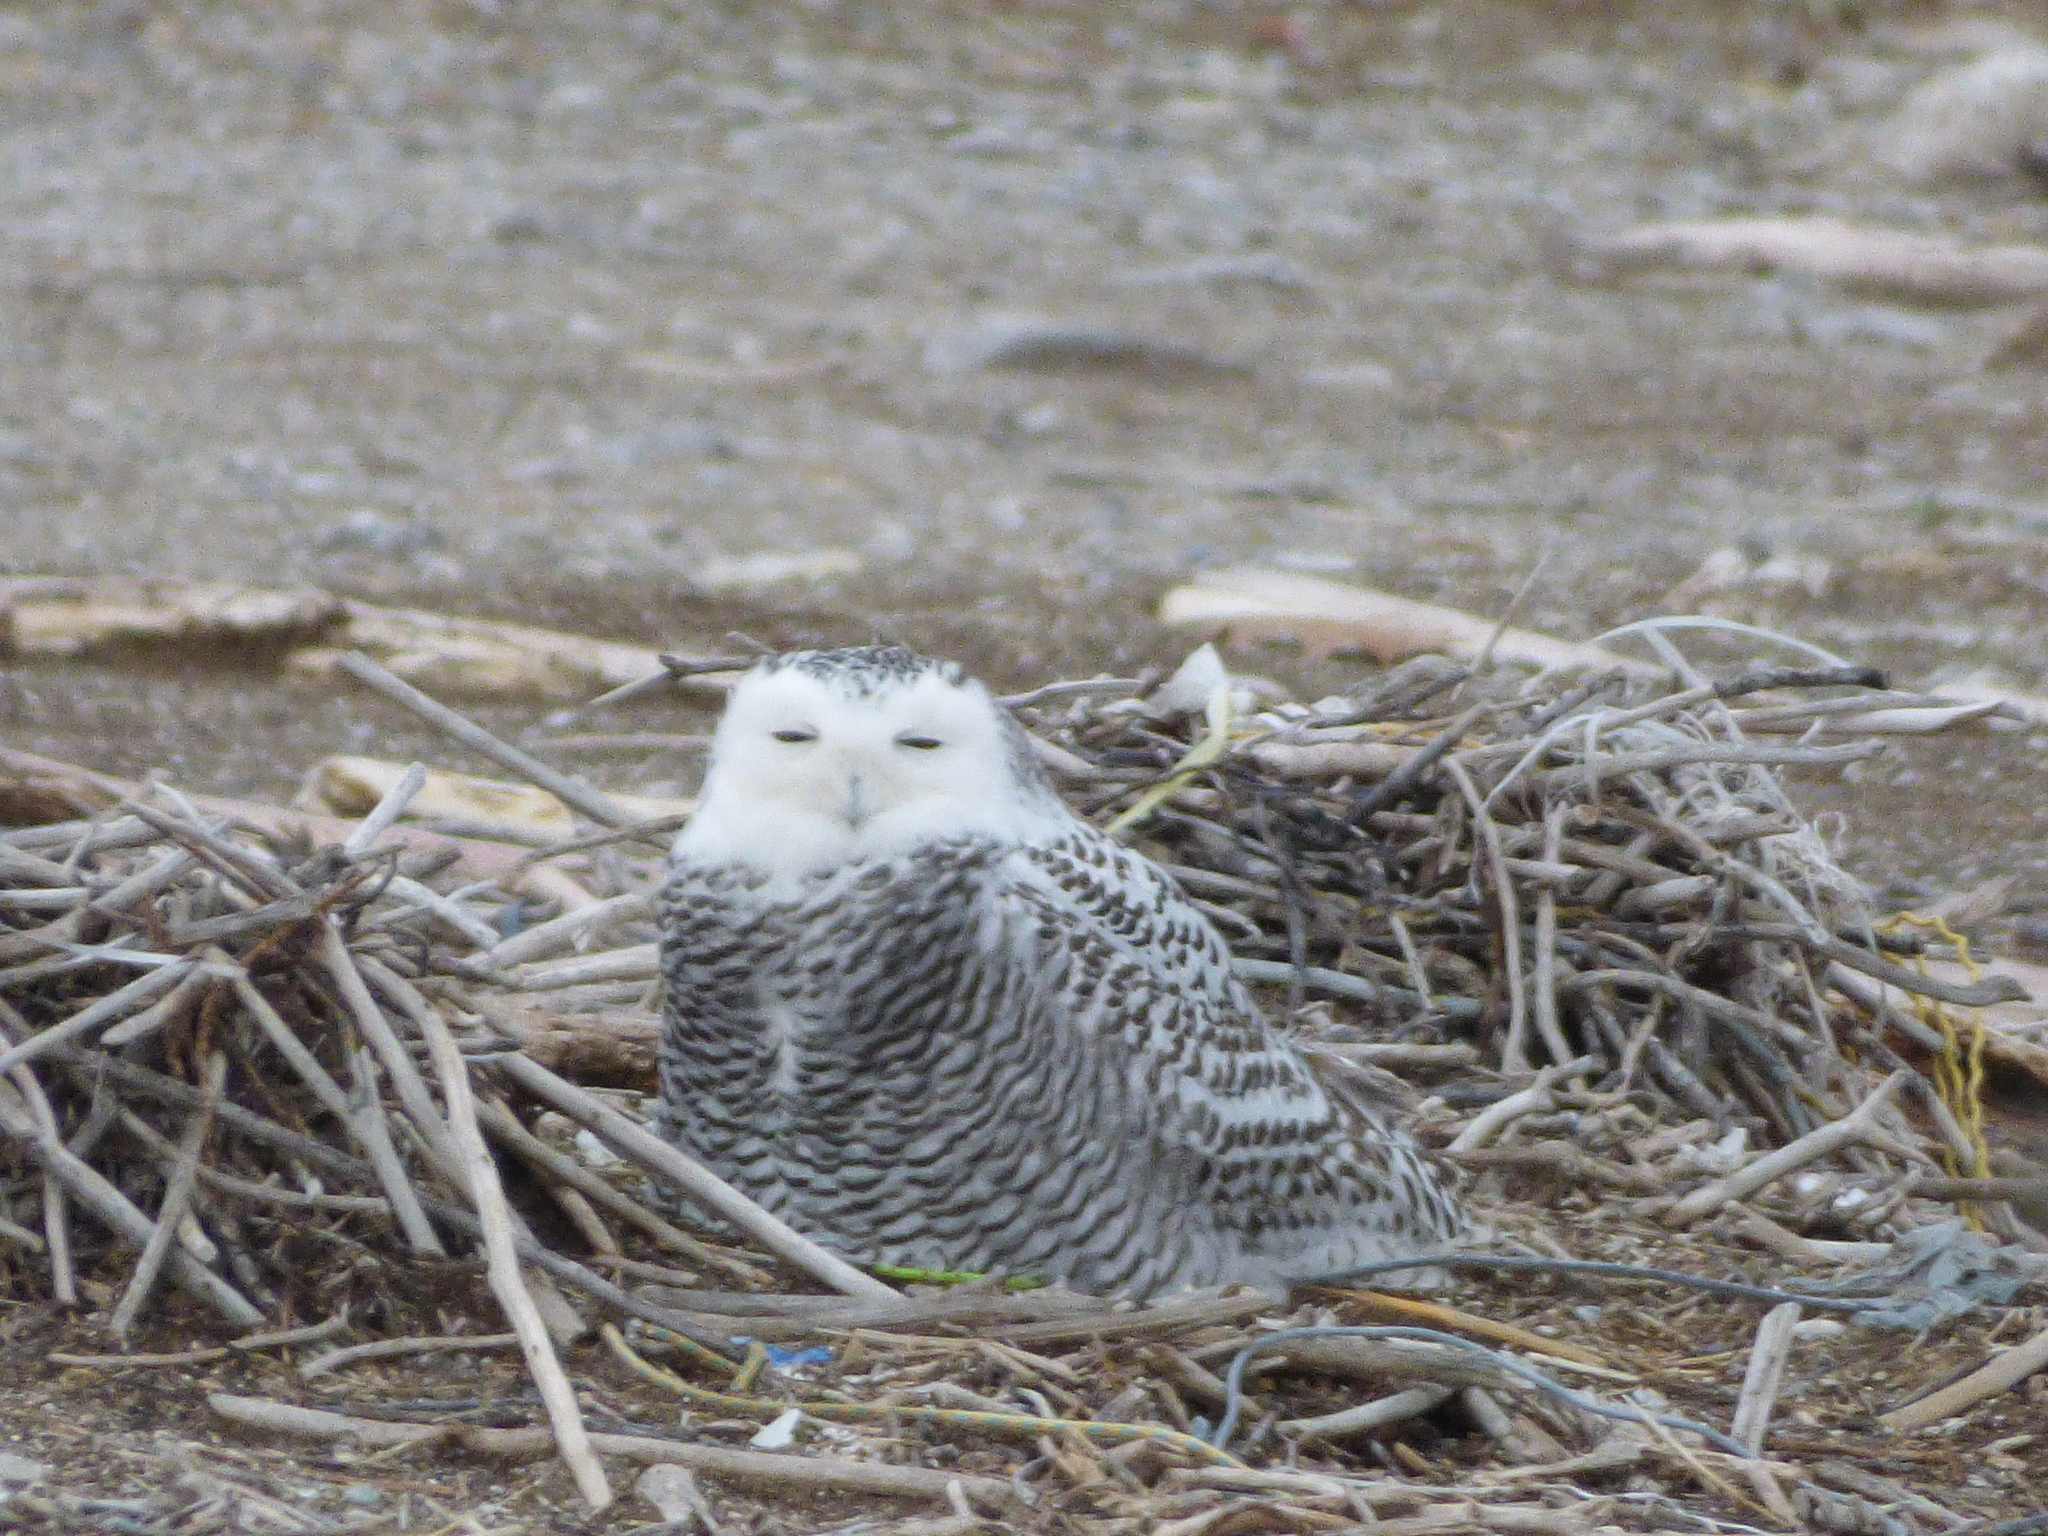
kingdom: Animalia
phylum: Chordata
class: Aves
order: Strigiformes
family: Strigidae
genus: Bubo
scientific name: Bubo scandiacus
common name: Snowy owl
